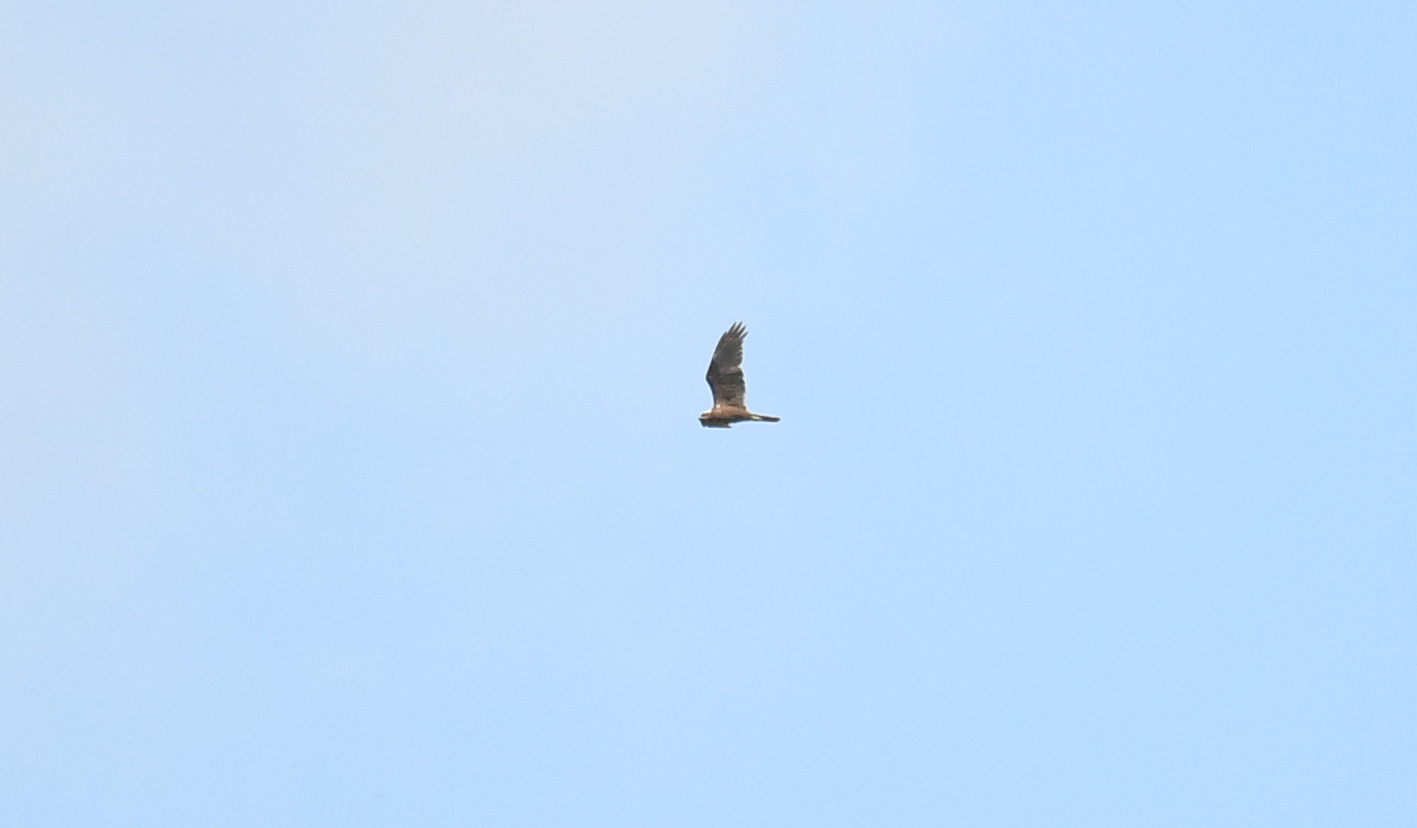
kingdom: Animalia
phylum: Chordata
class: Aves
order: Accipitriformes
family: Accipitridae
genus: Circus
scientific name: Circus aeruginosus
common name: Western marsh harrier
